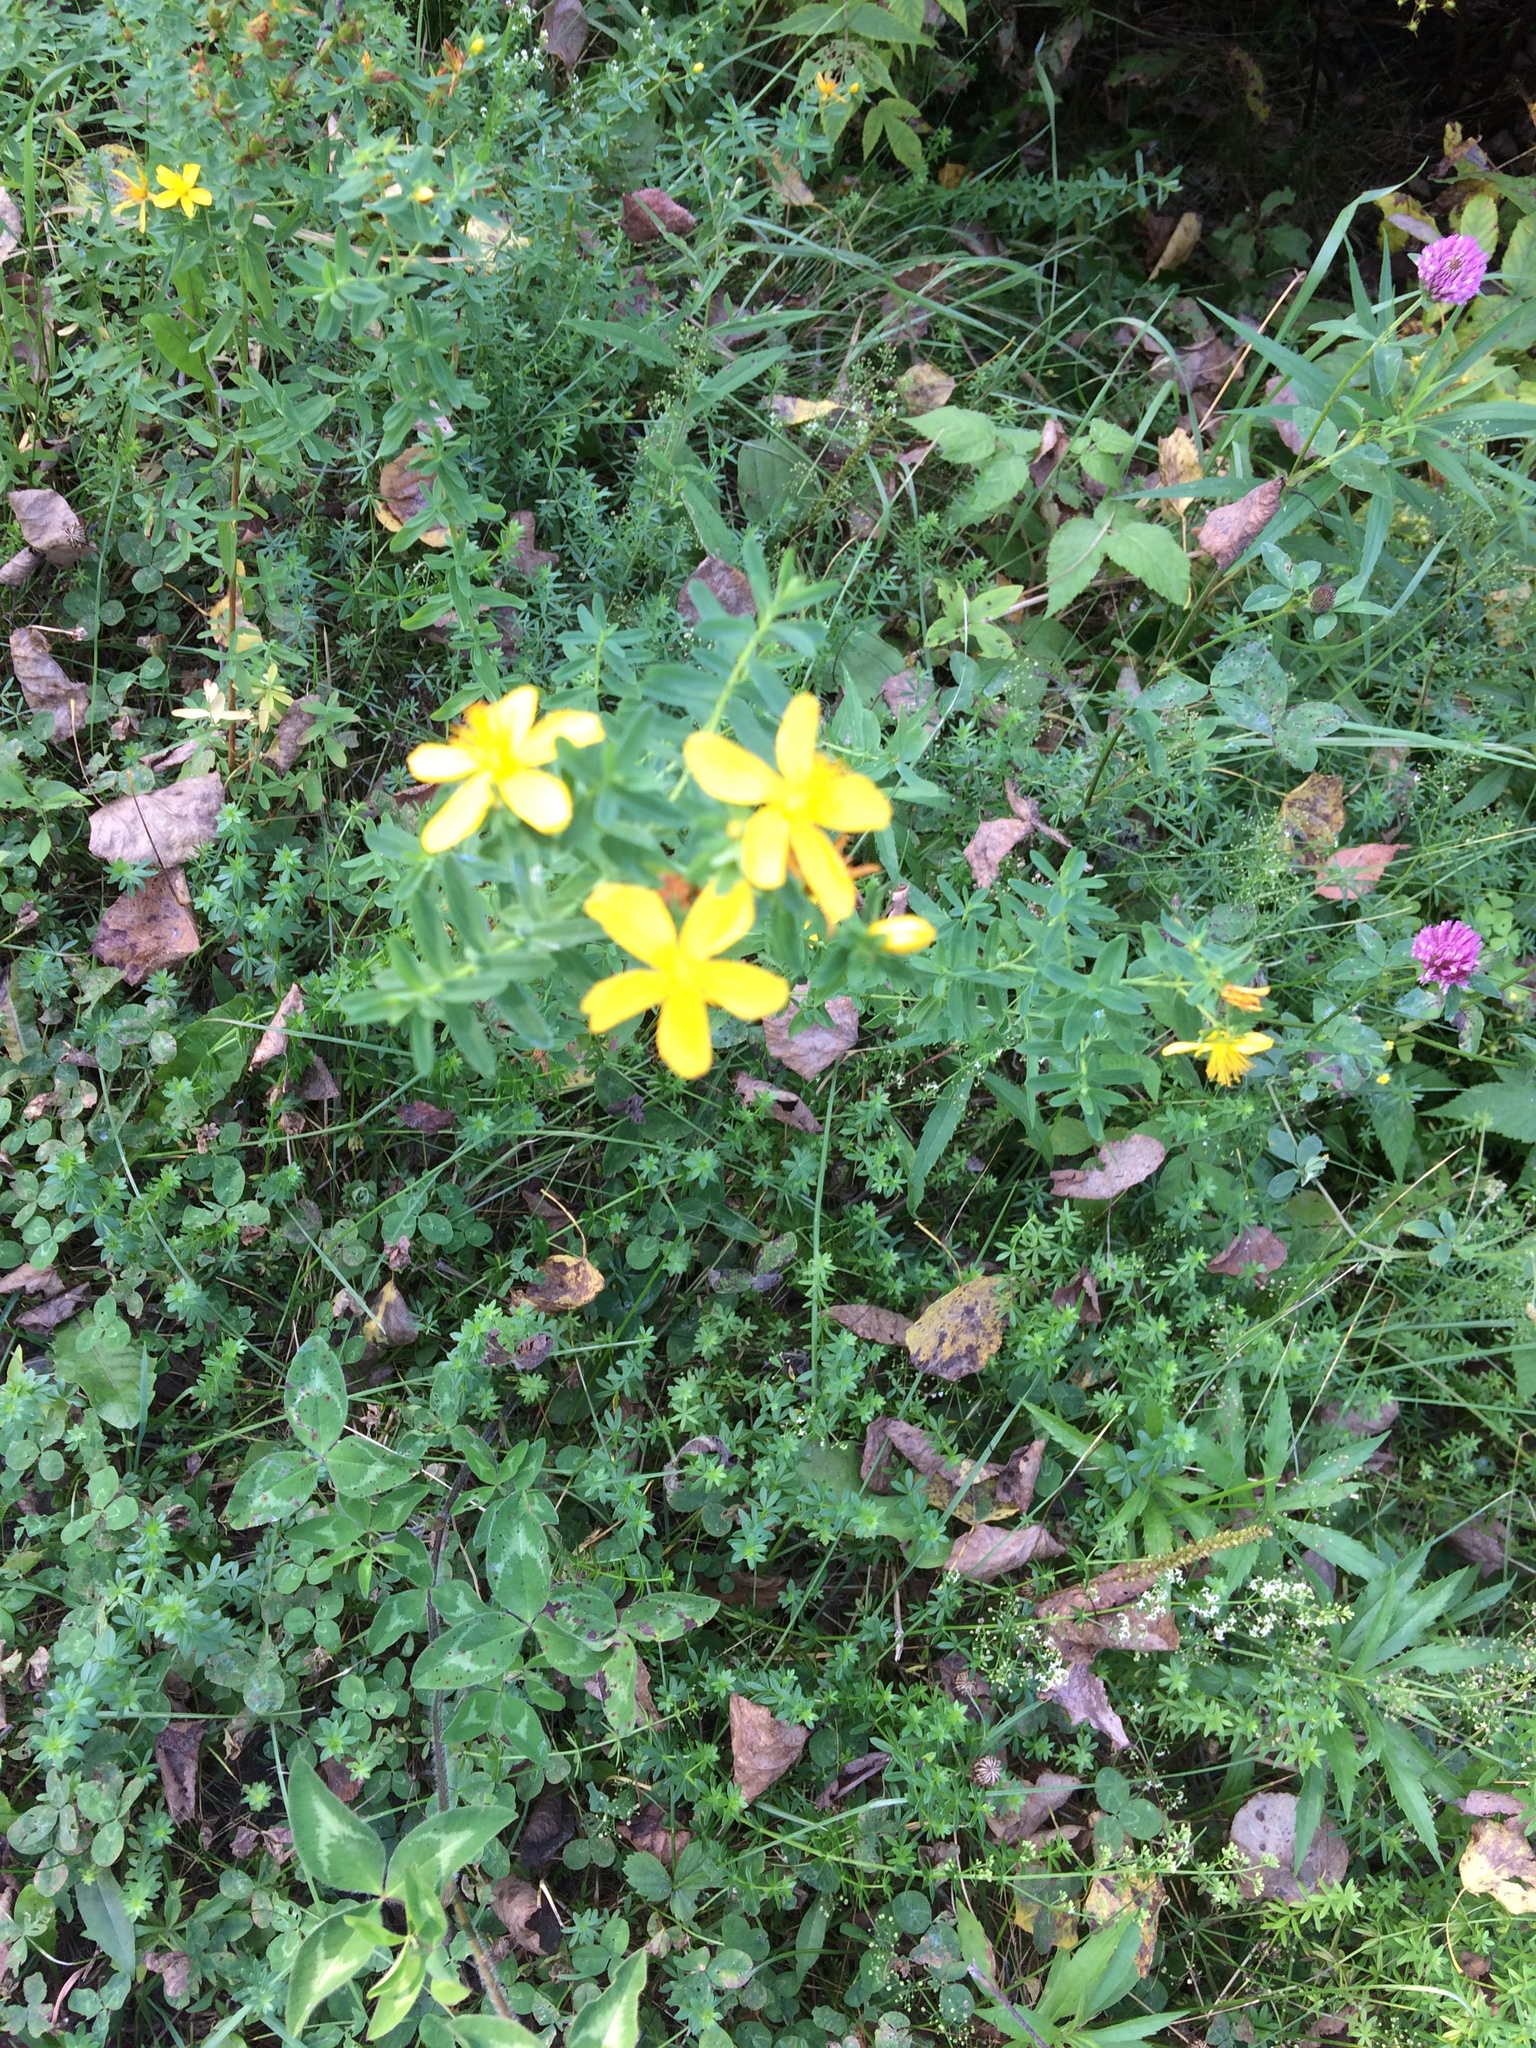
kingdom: Plantae
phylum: Tracheophyta
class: Magnoliopsida
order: Malpighiales
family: Hypericaceae
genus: Hypericum
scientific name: Hypericum perforatum
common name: Common st. johnswort
